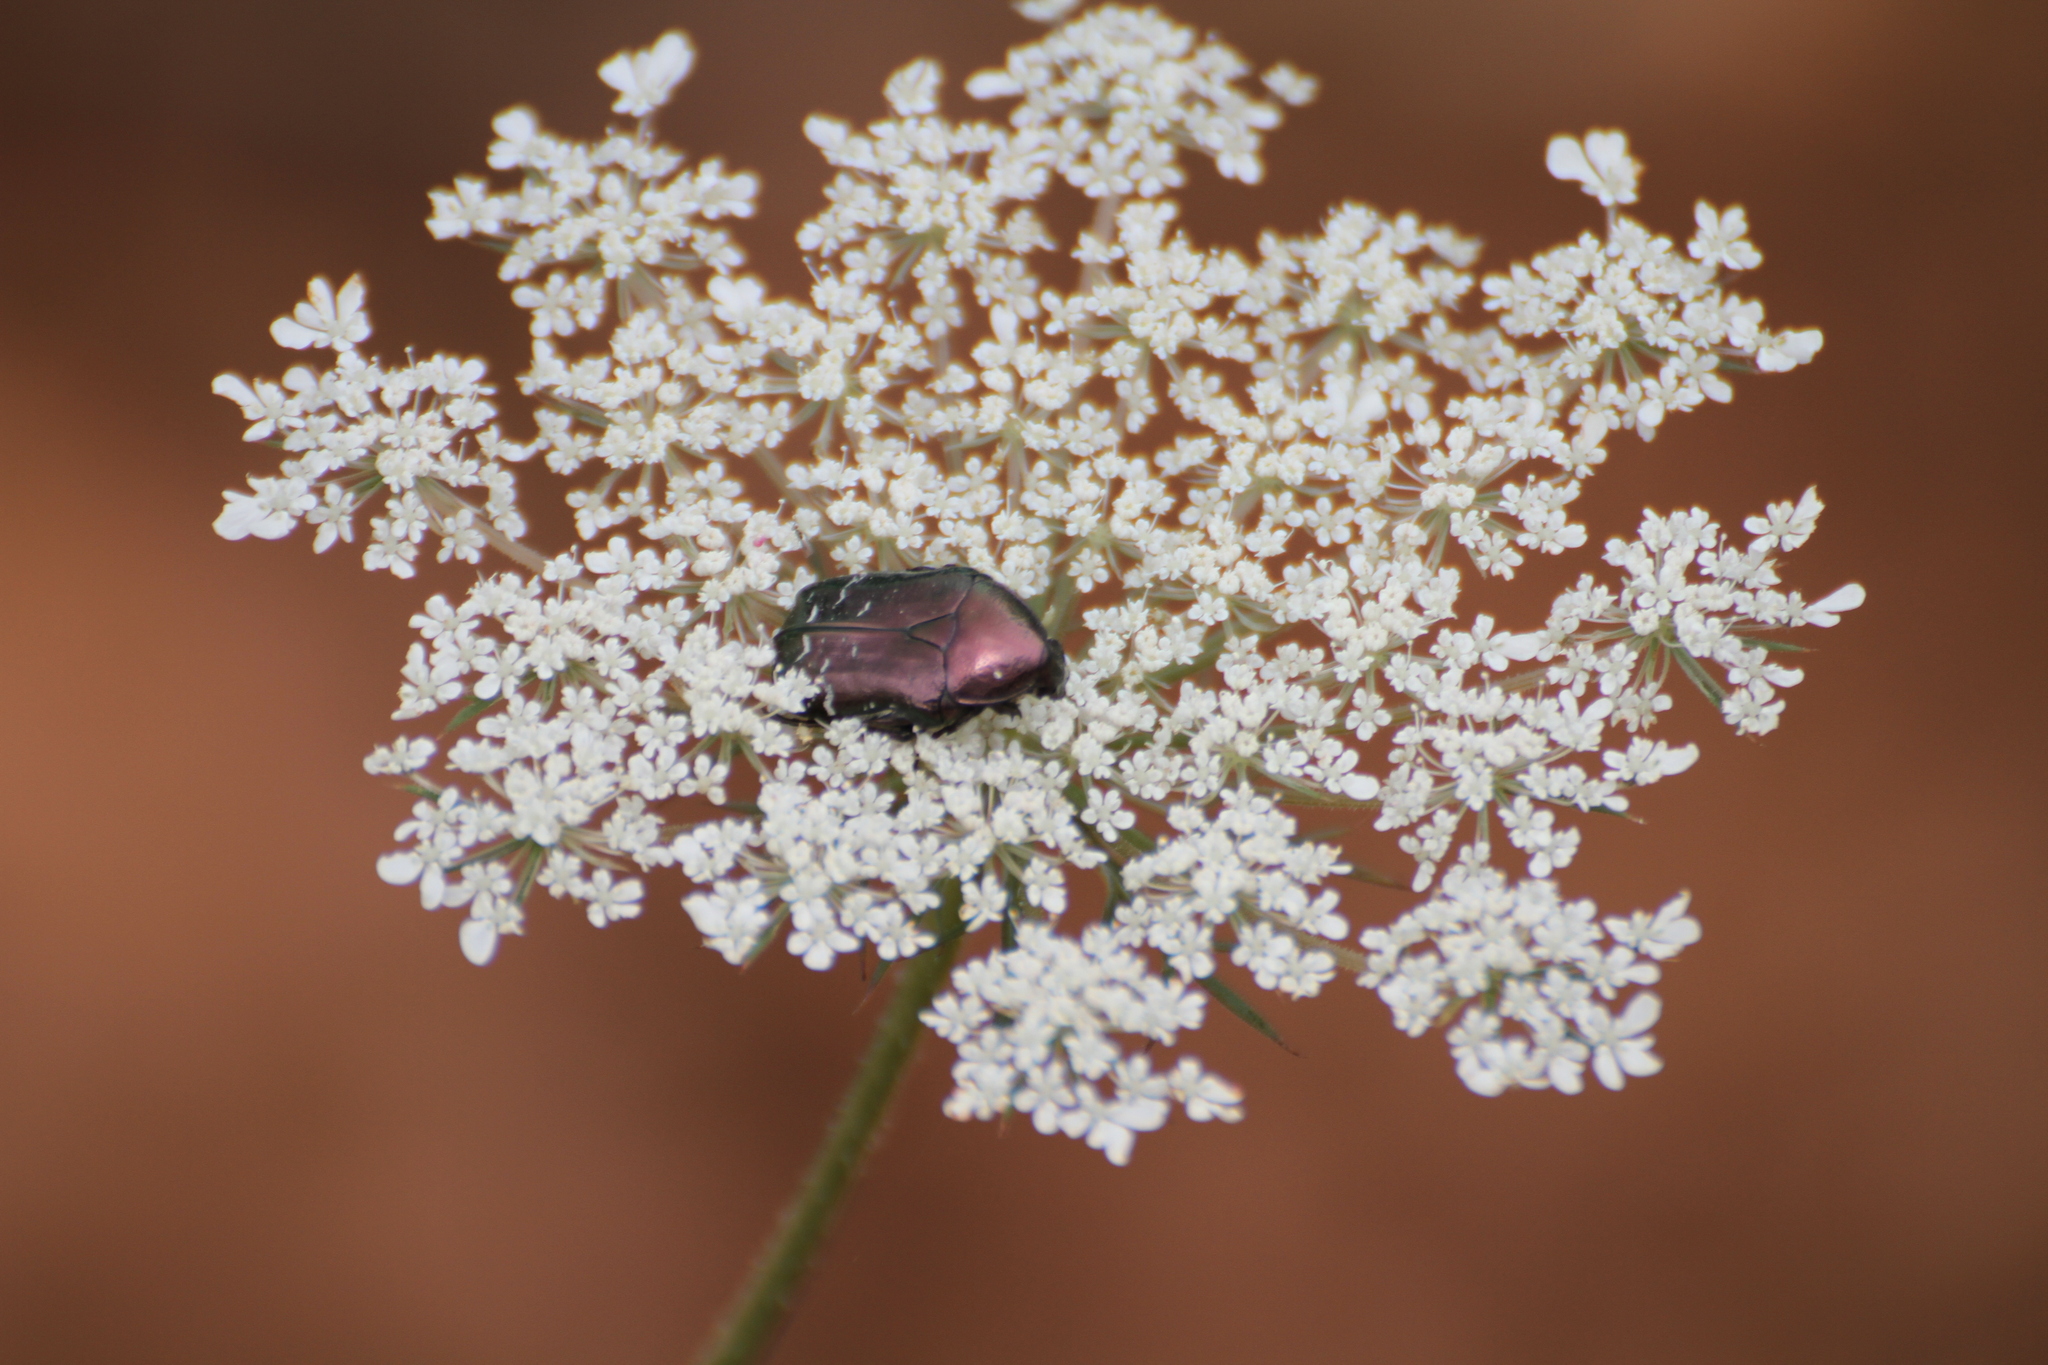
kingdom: Animalia
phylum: Arthropoda
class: Insecta
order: Coleoptera
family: Scarabaeidae
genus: Cetonia
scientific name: Cetonia aurata
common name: Rose chafer
